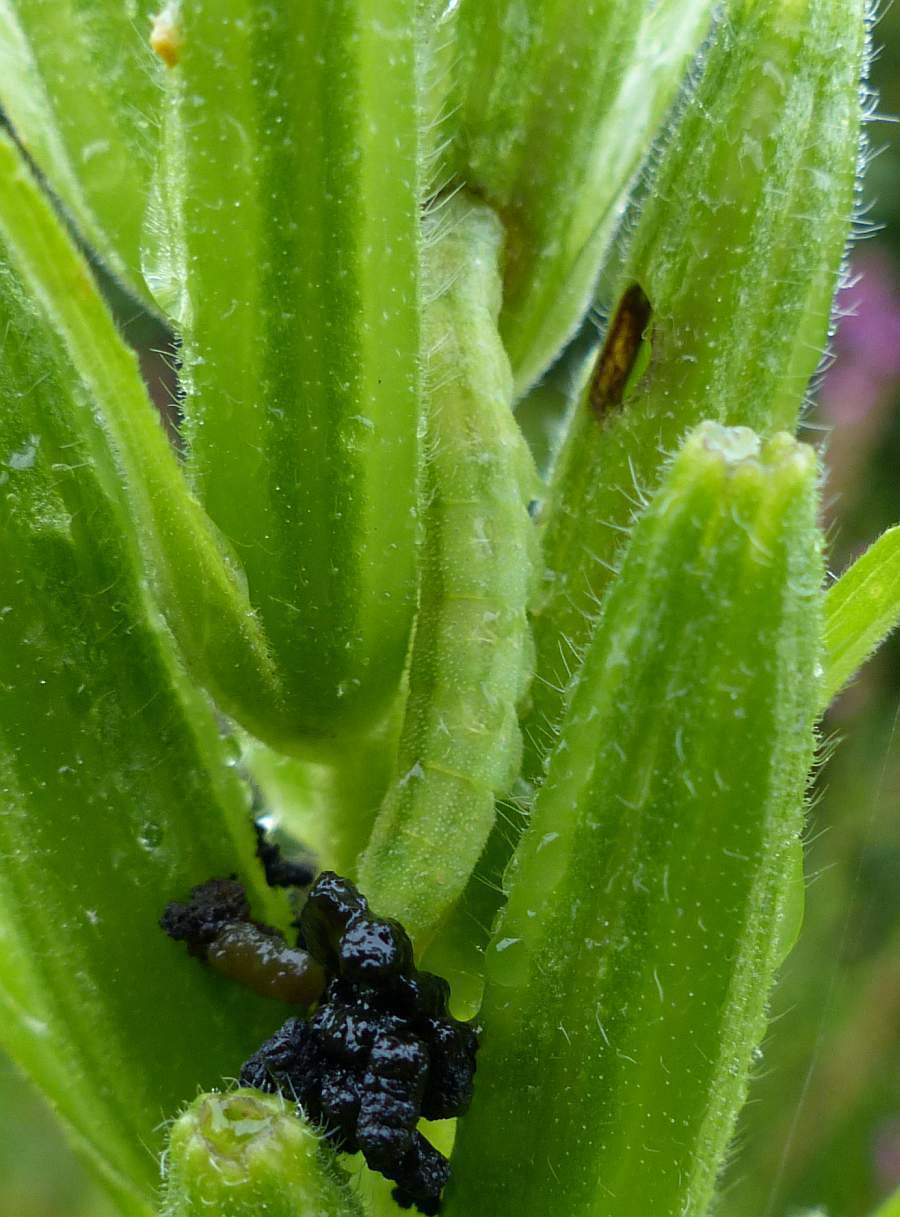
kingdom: Animalia
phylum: Arthropoda
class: Insecta
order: Lepidoptera
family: Noctuidae
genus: Schinia
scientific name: Schinia florida
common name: Primrose moth
